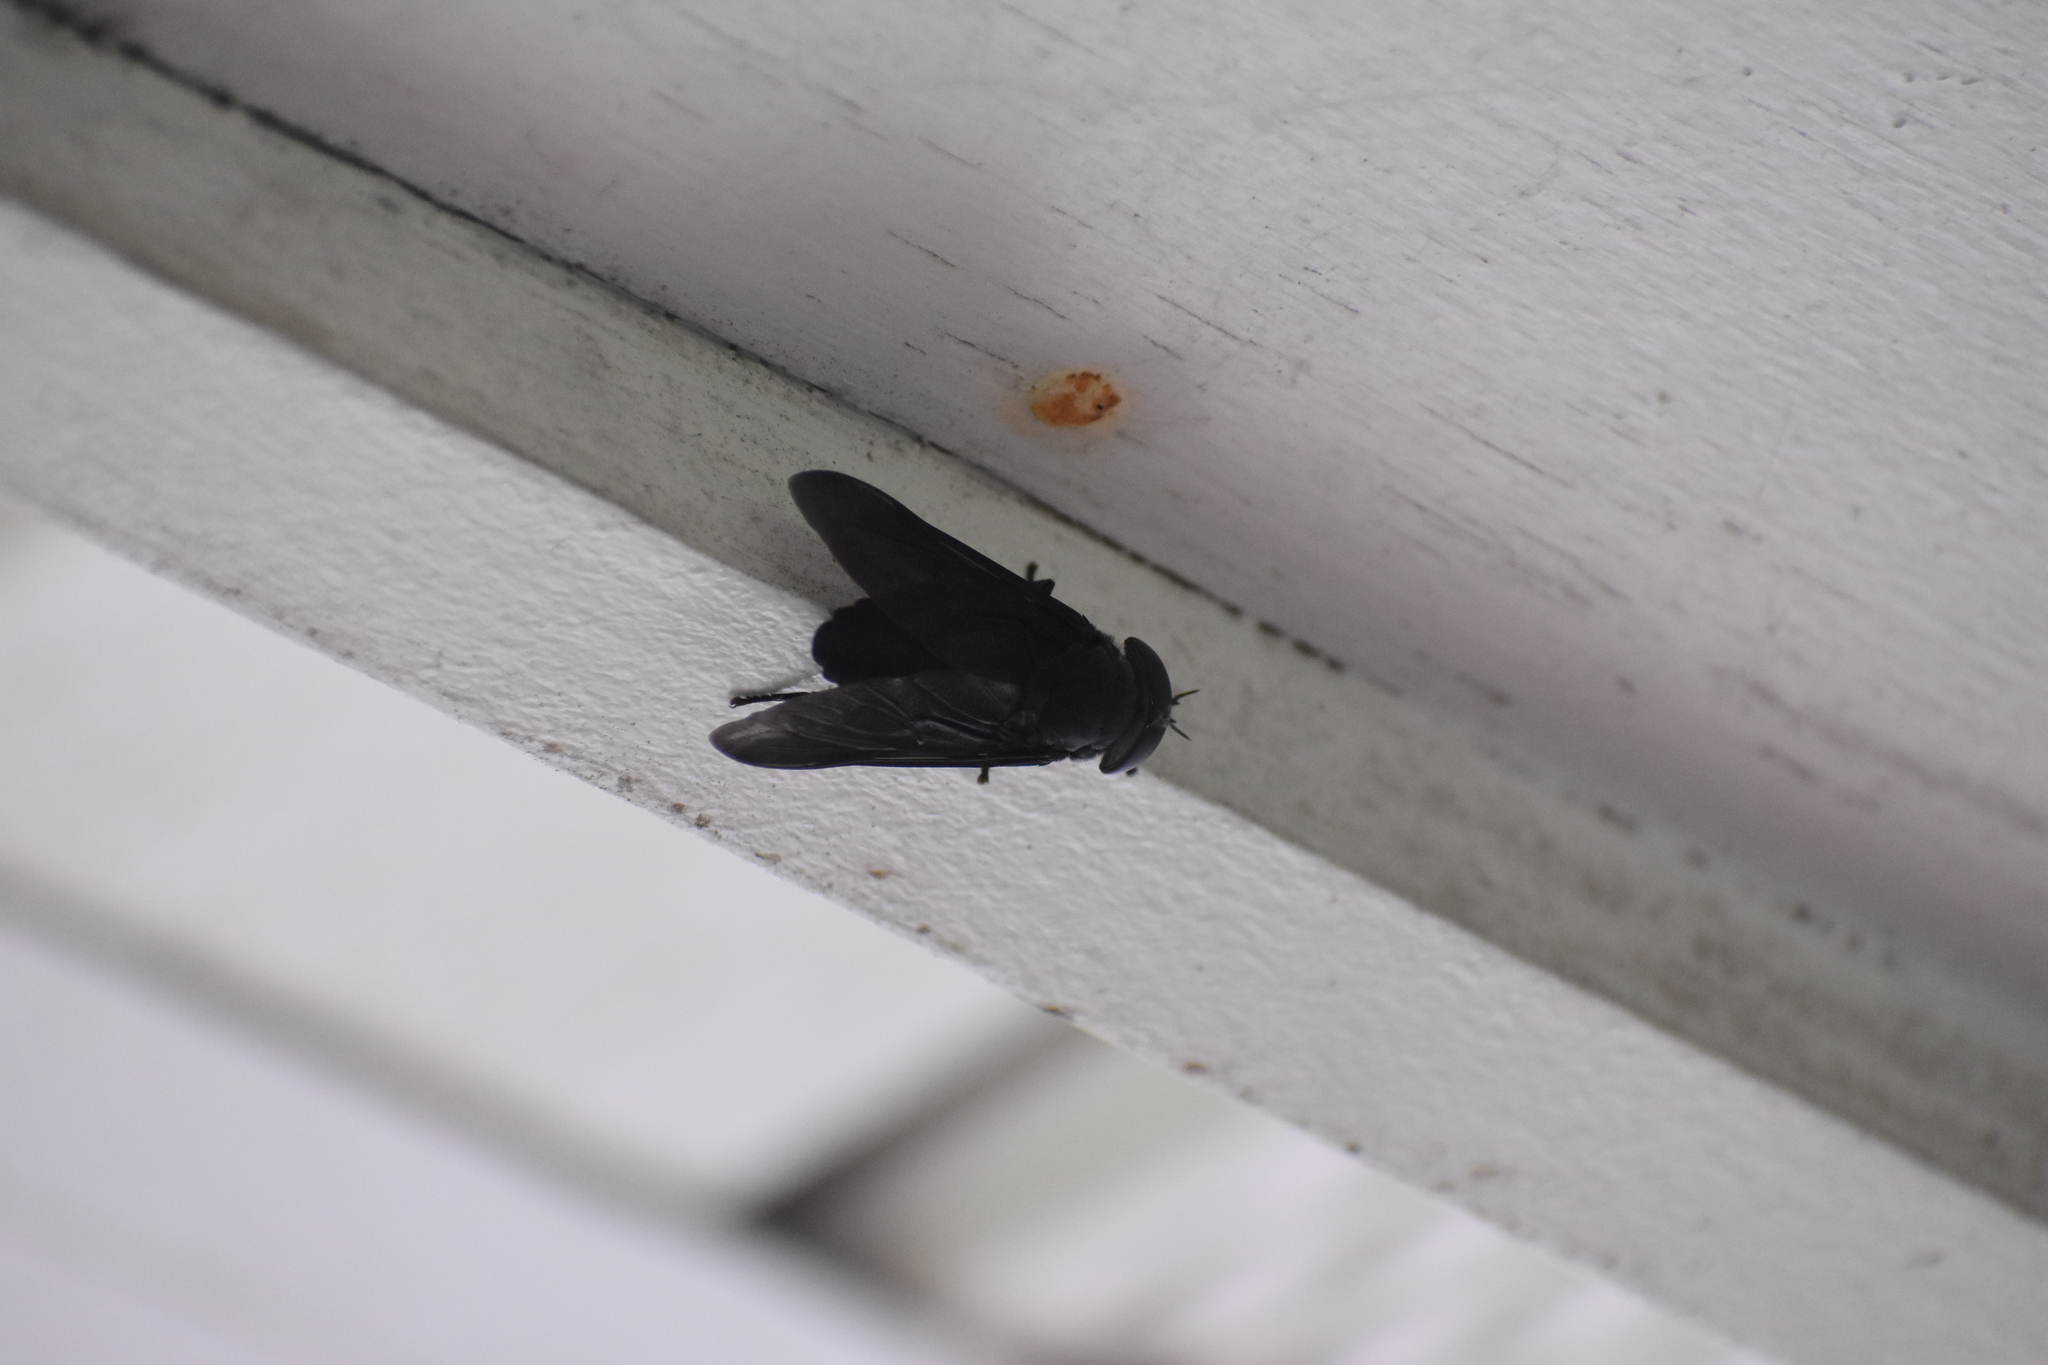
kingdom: Animalia
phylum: Arthropoda
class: Insecta
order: Diptera
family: Tabanidae
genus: Tabanus
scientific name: Tabanus atratus
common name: Black horse fly
